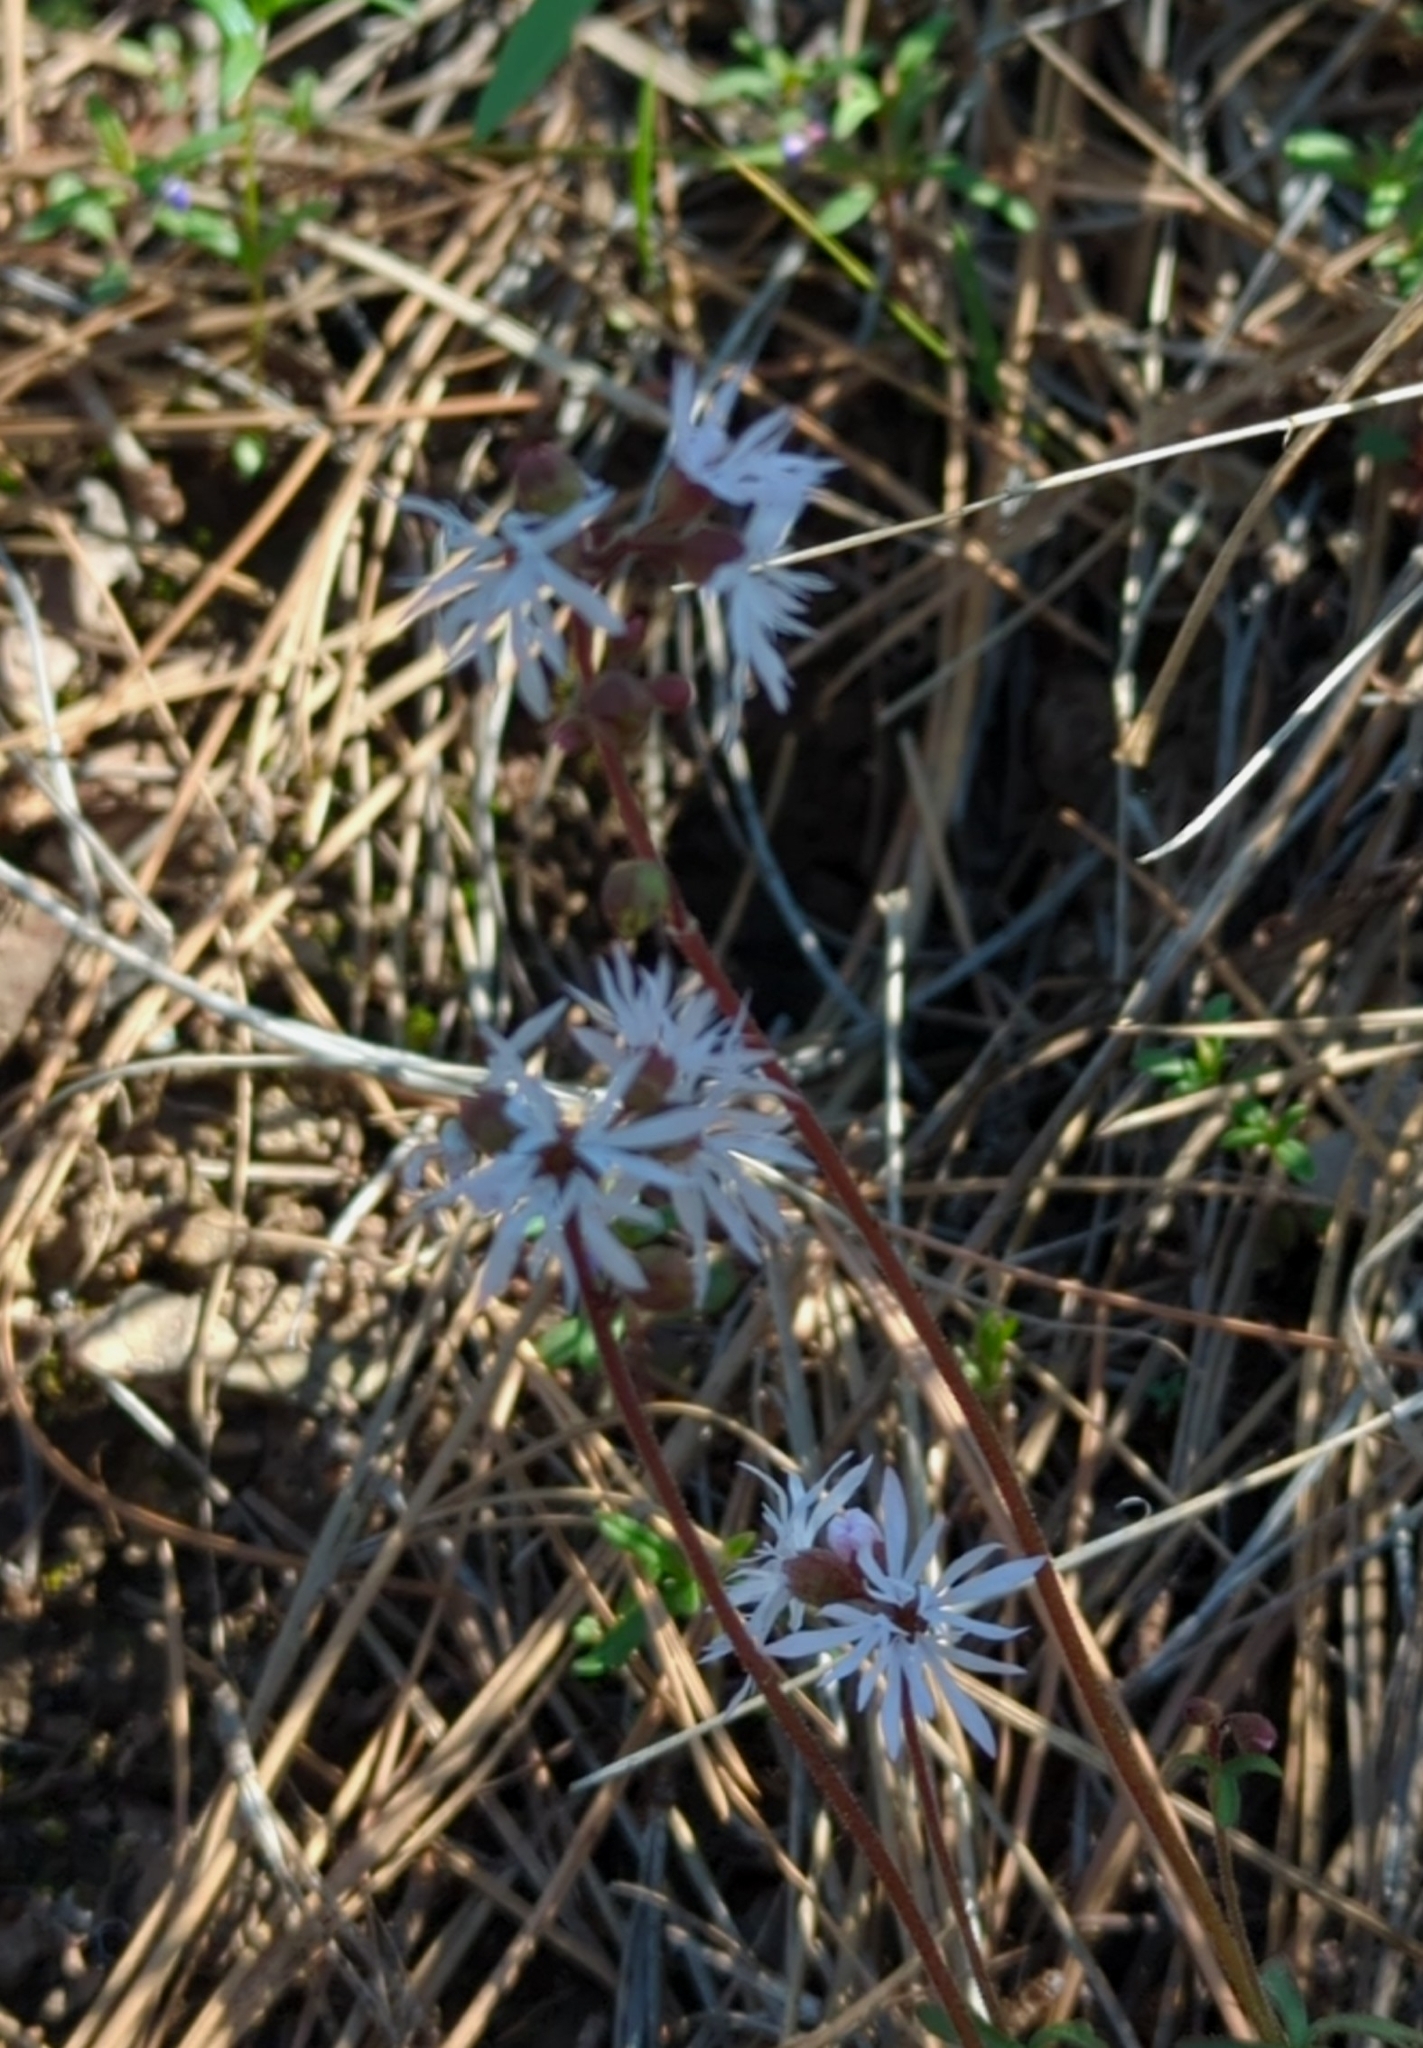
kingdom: Plantae
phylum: Tracheophyta
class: Magnoliopsida
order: Saxifragales
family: Saxifragaceae
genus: Lithophragma
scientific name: Lithophragma glabrum
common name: Bulbous prairie-star
